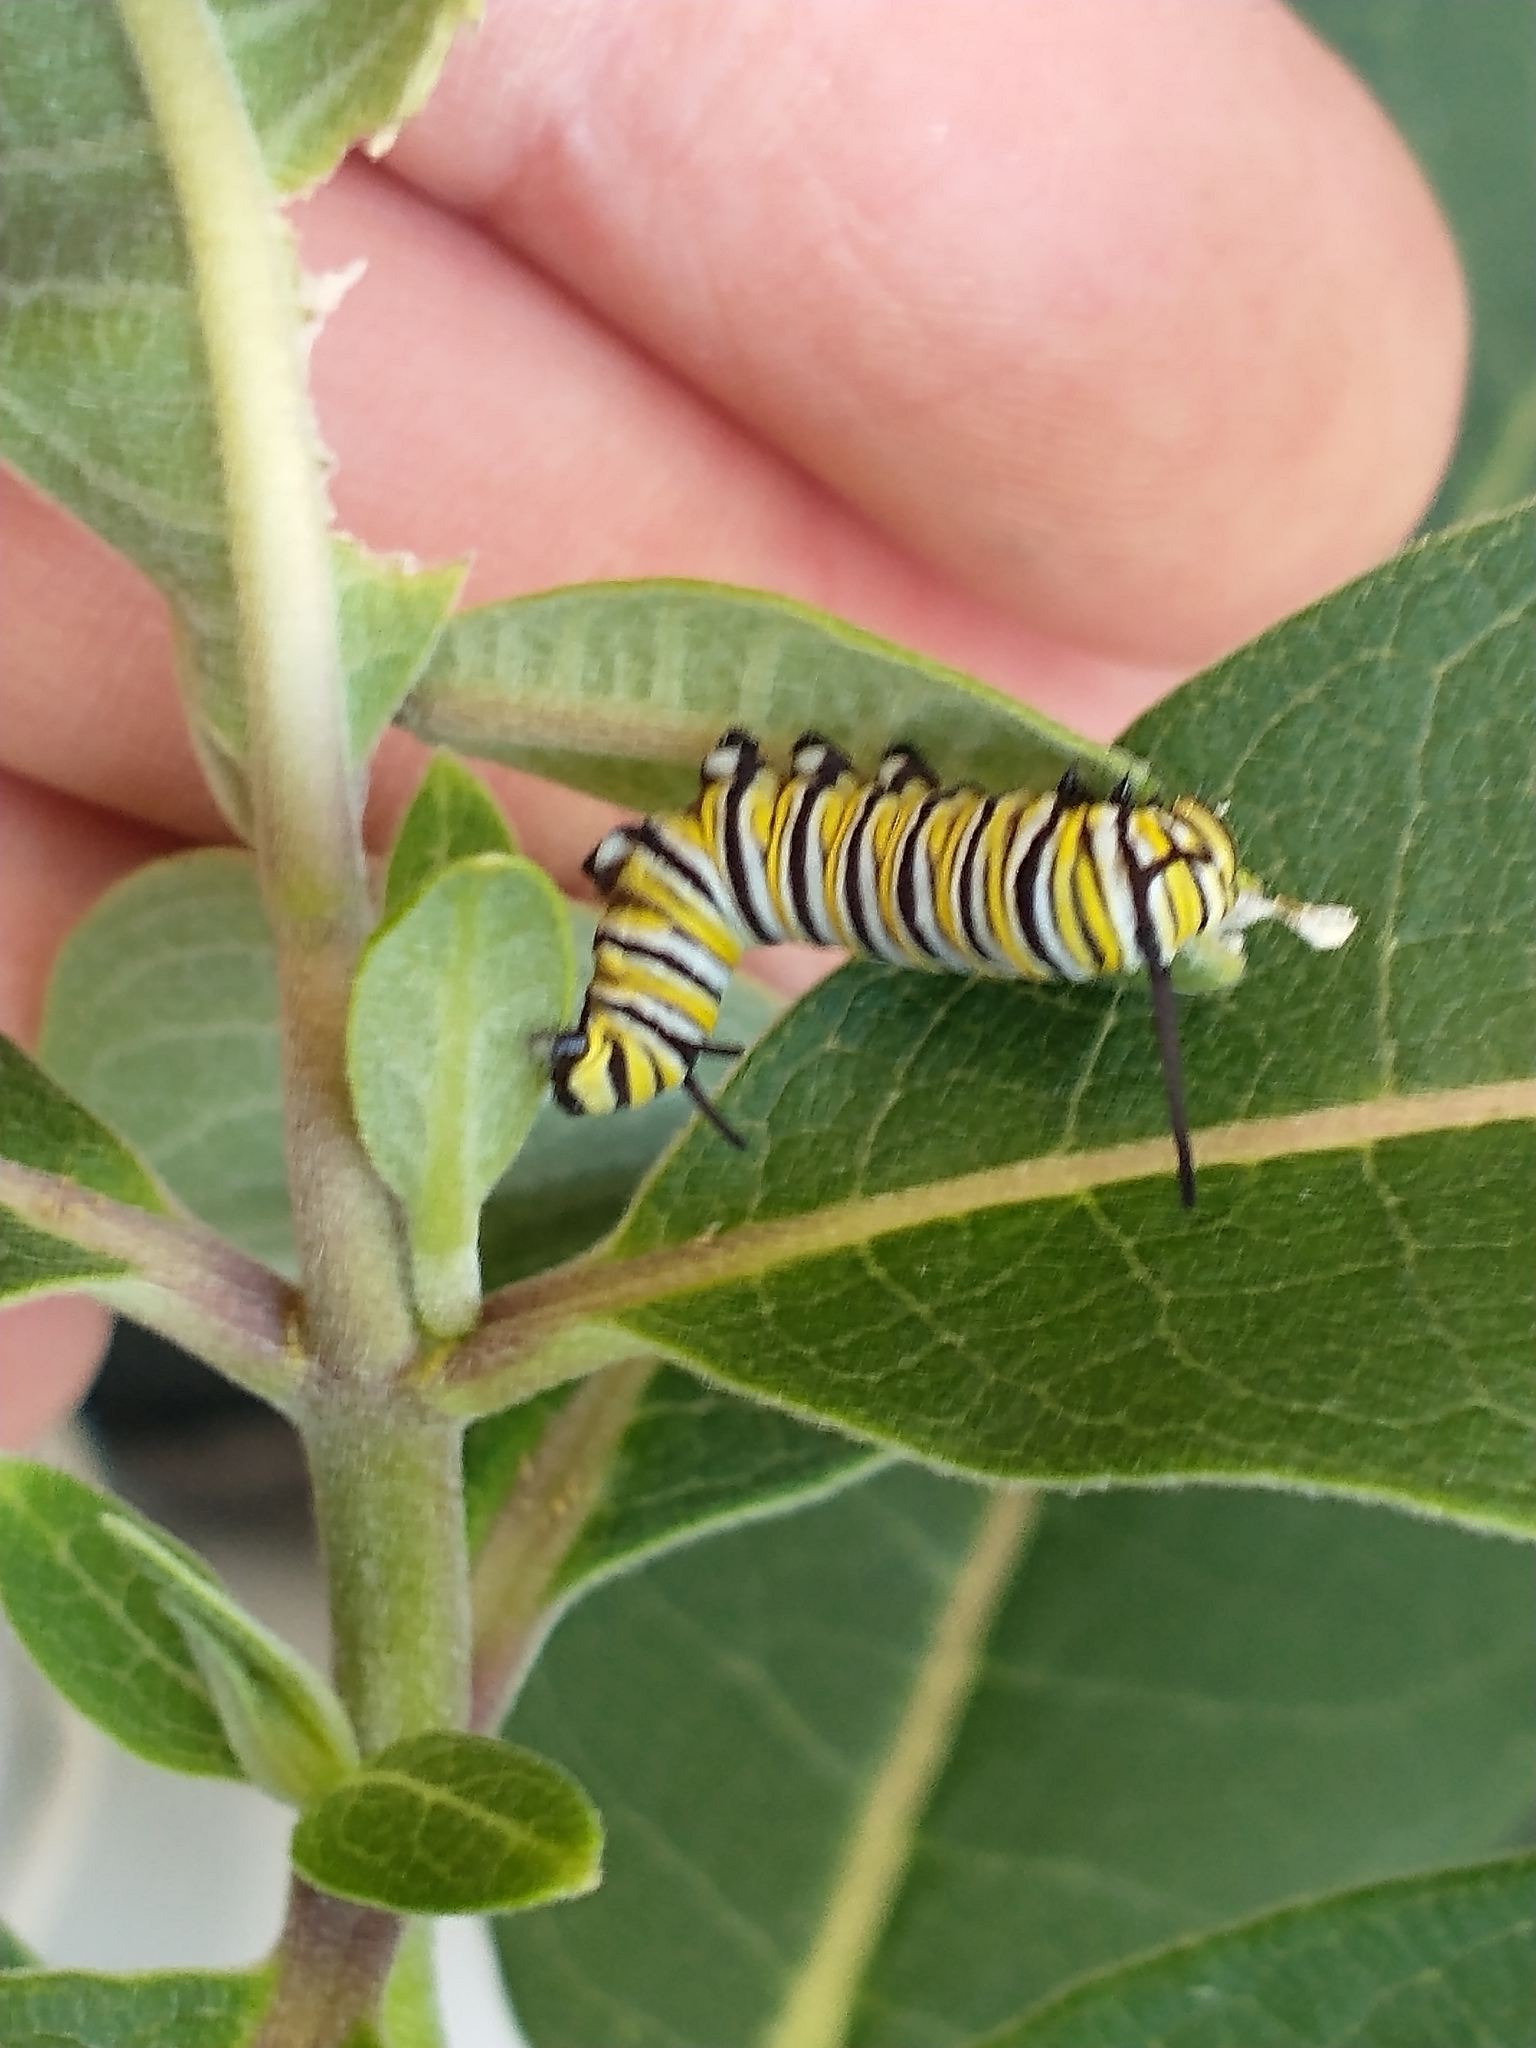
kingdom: Animalia
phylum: Arthropoda
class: Insecta
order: Lepidoptera
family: Nymphalidae
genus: Danaus
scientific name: Danaus plexippus
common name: Monarch
